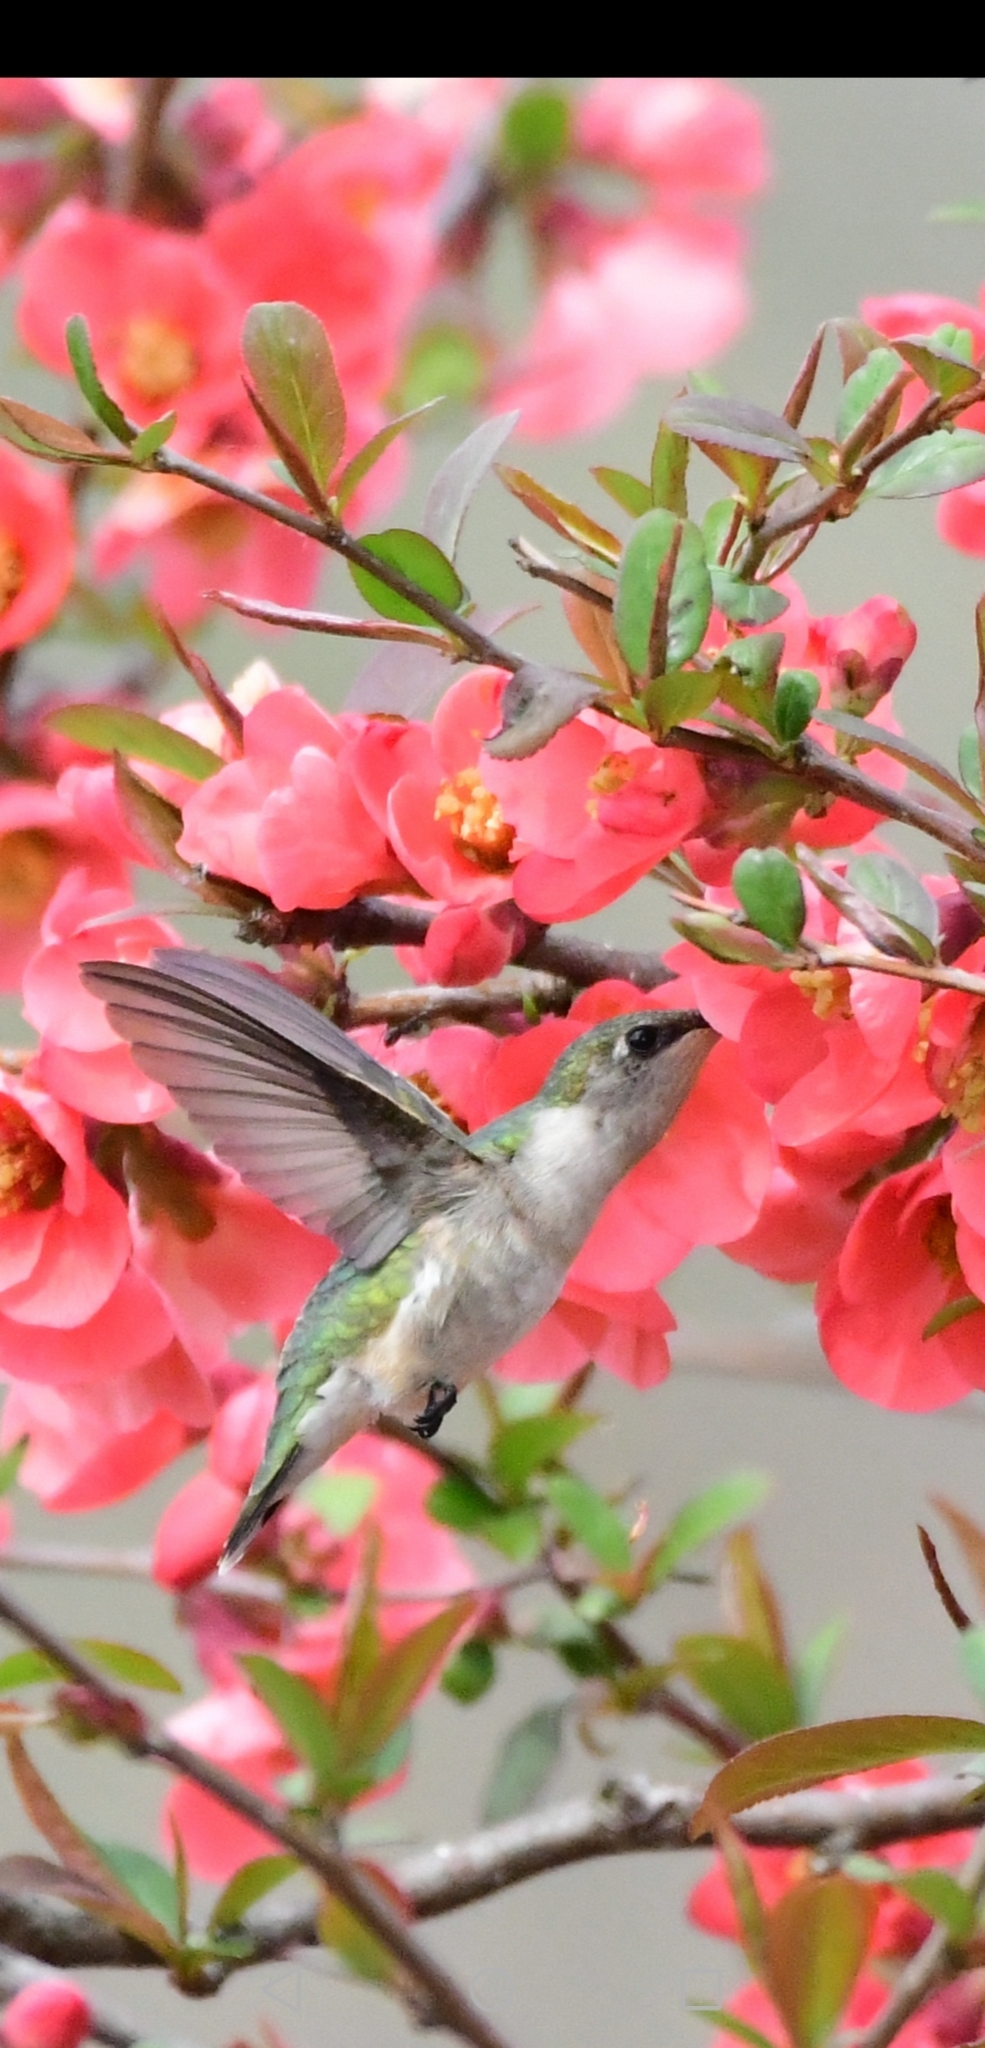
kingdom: Animalia
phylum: Chordata
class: Aves
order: Apodiformes
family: Trochilidae
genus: Archilochus
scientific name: Archilochus colubris
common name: Ruby-throated hummingbird
